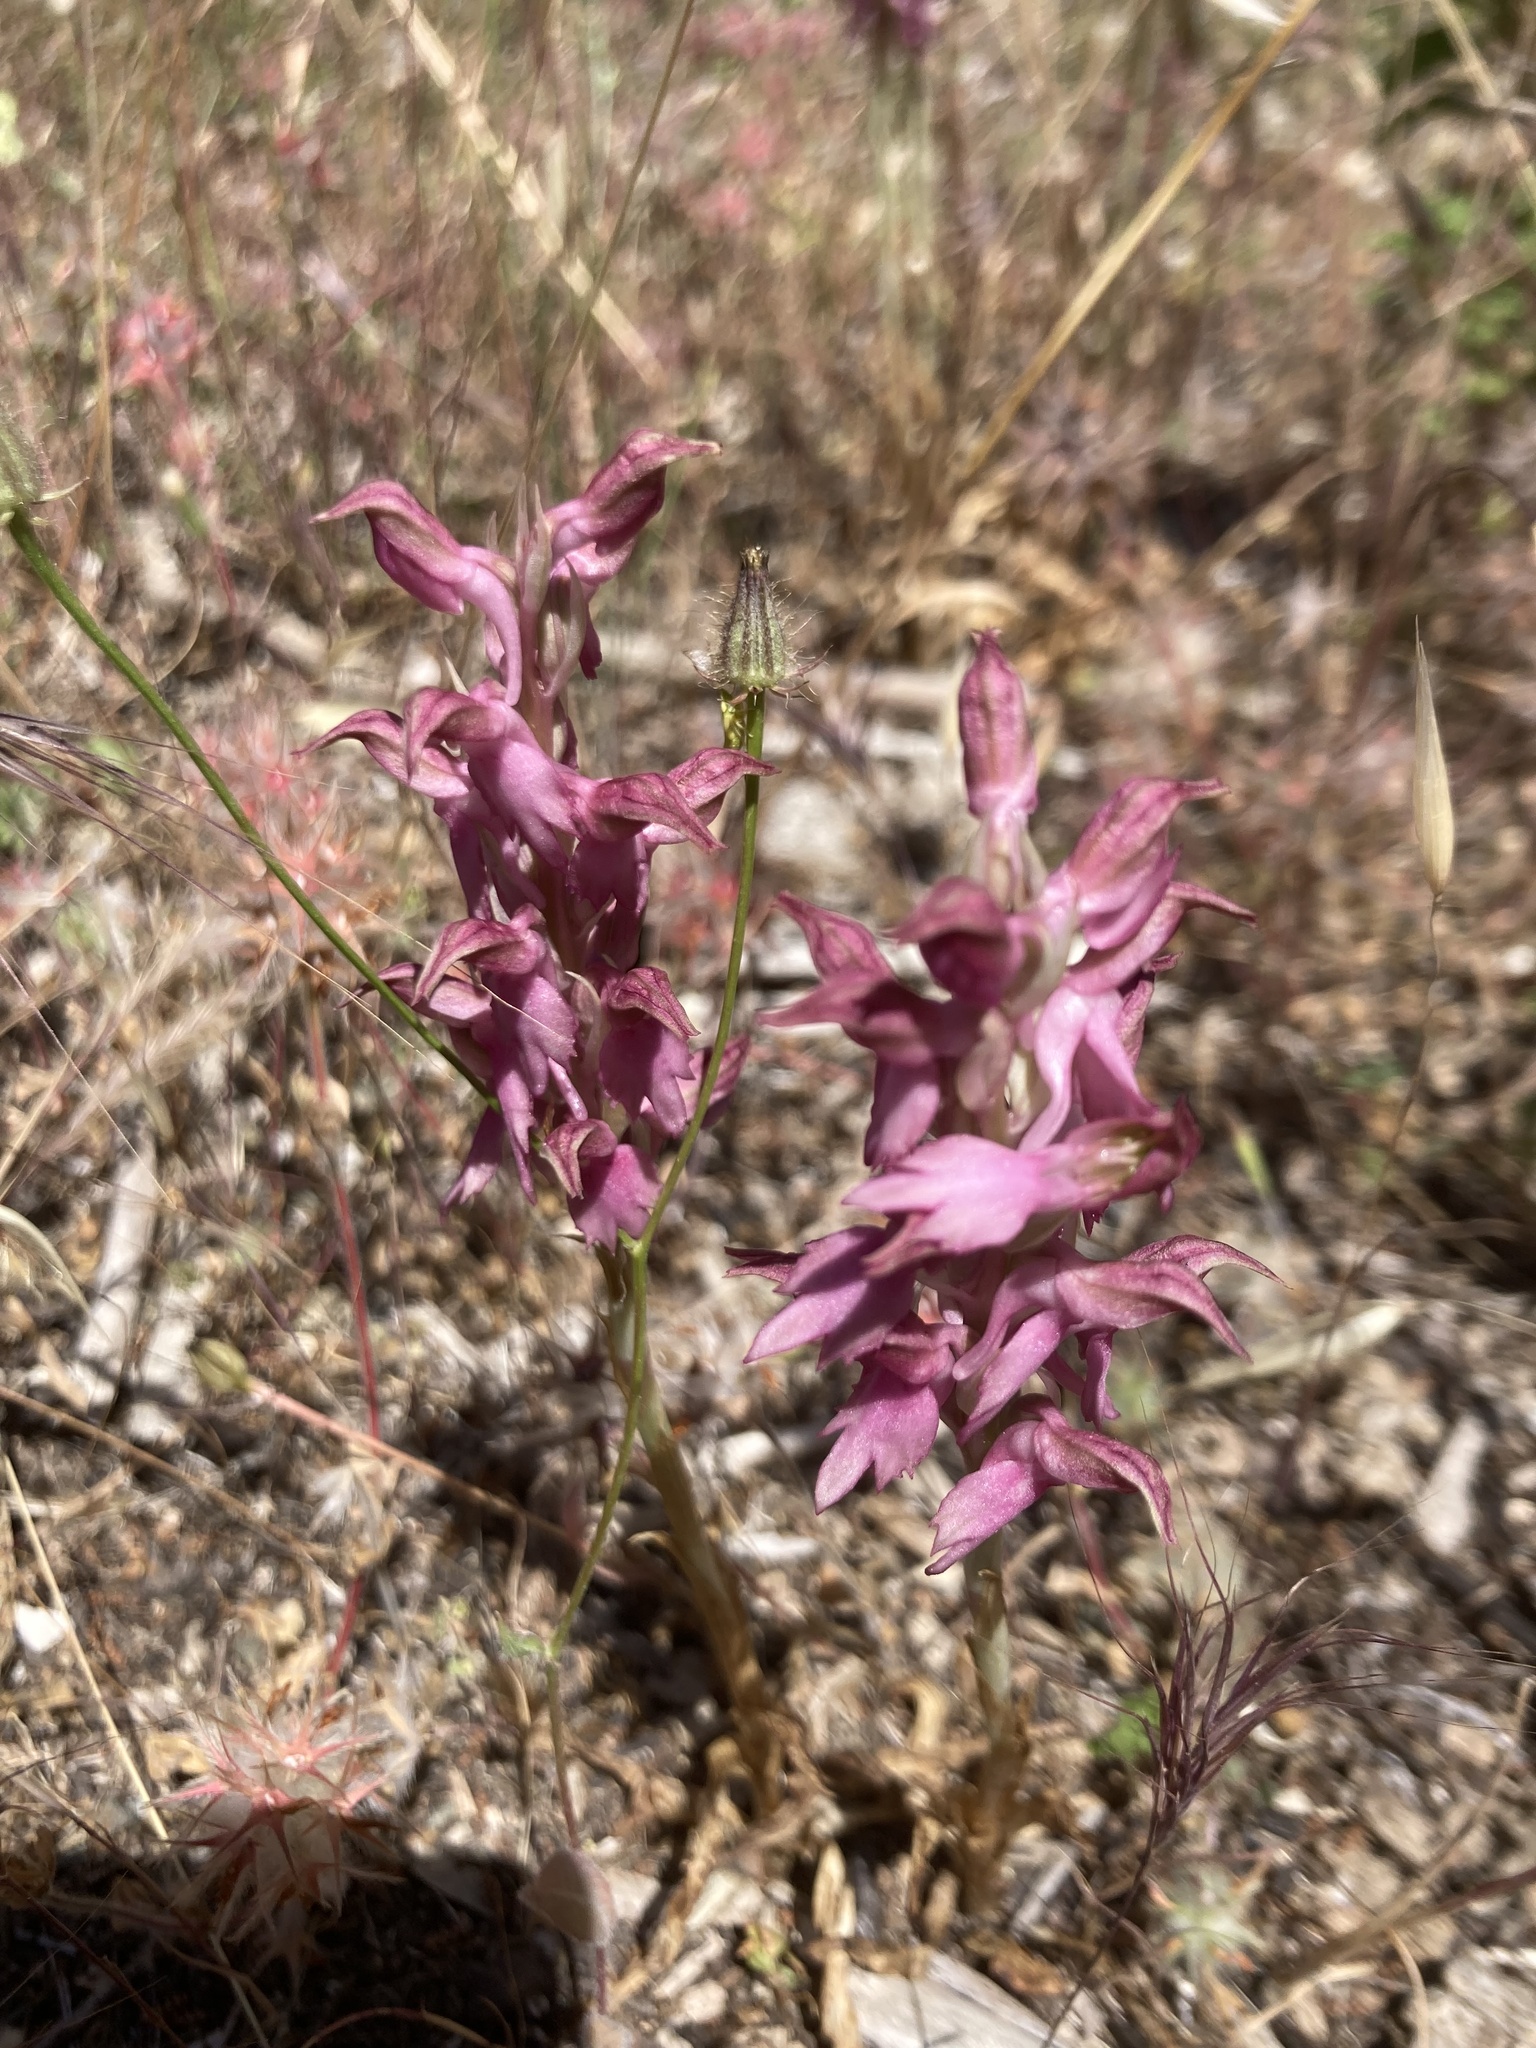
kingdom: Plantae
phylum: Tracheophyta
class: Liliopsida
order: Asparagales
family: Orchidaceae
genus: Anacamptis
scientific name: Anacamptis sancta
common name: Holy orchid
